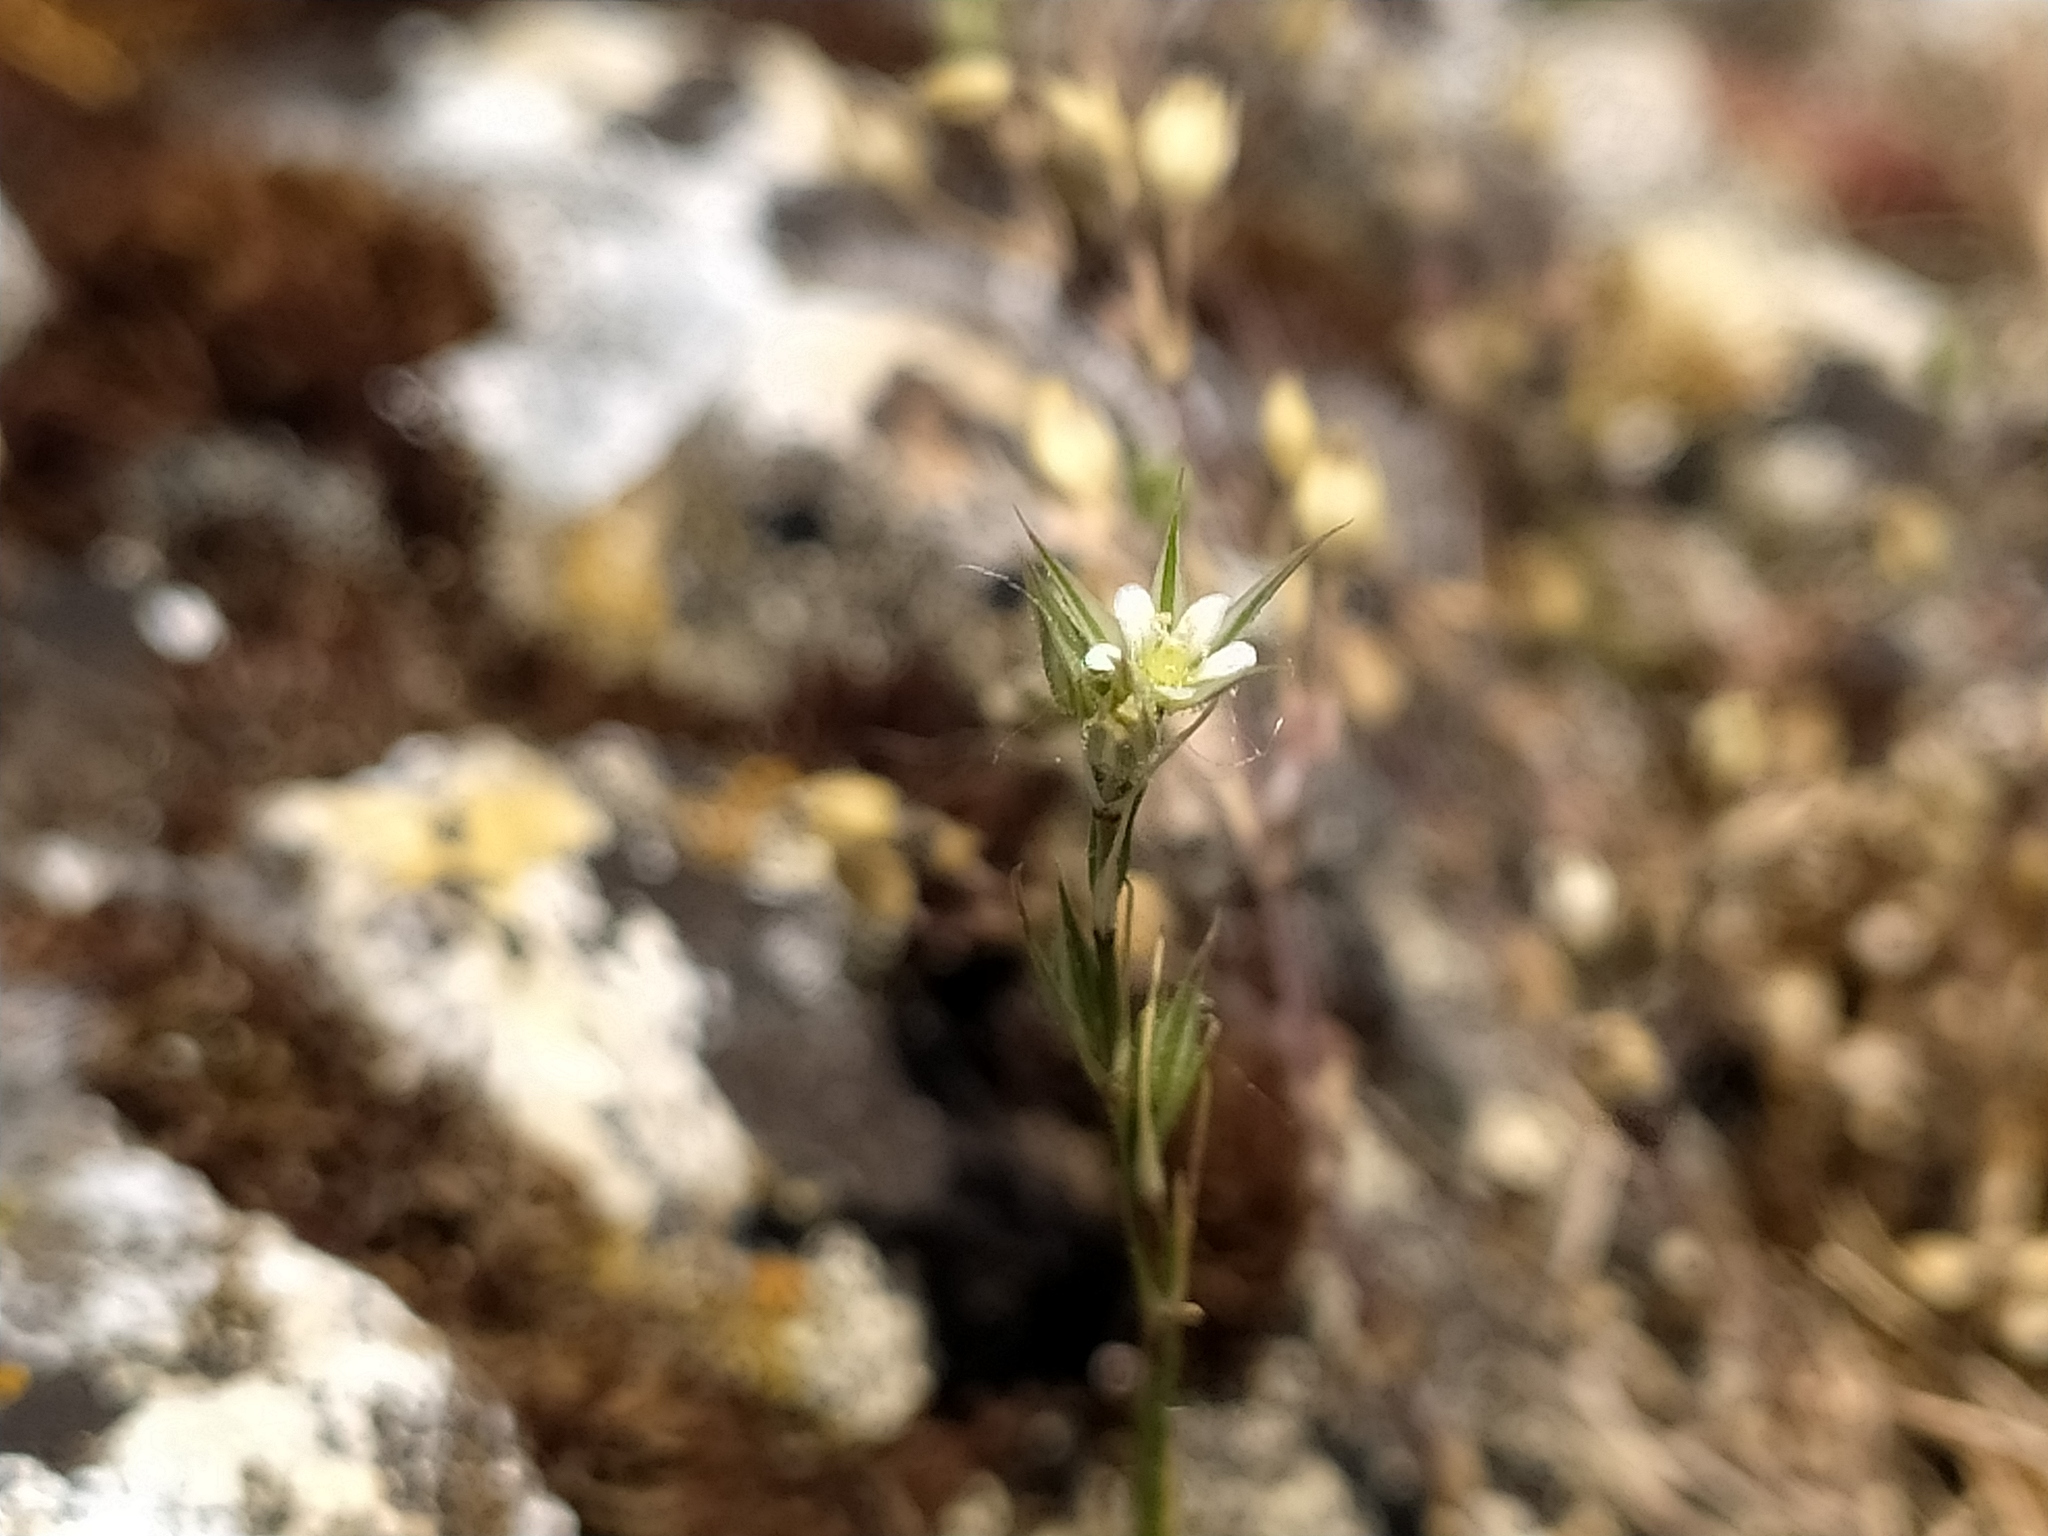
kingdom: Plantae
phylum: Tracheophyta
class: Magnoliopsida
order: Caryophyllales
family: Caryophyllaceae
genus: Minuartia
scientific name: Minuartia mucronata
